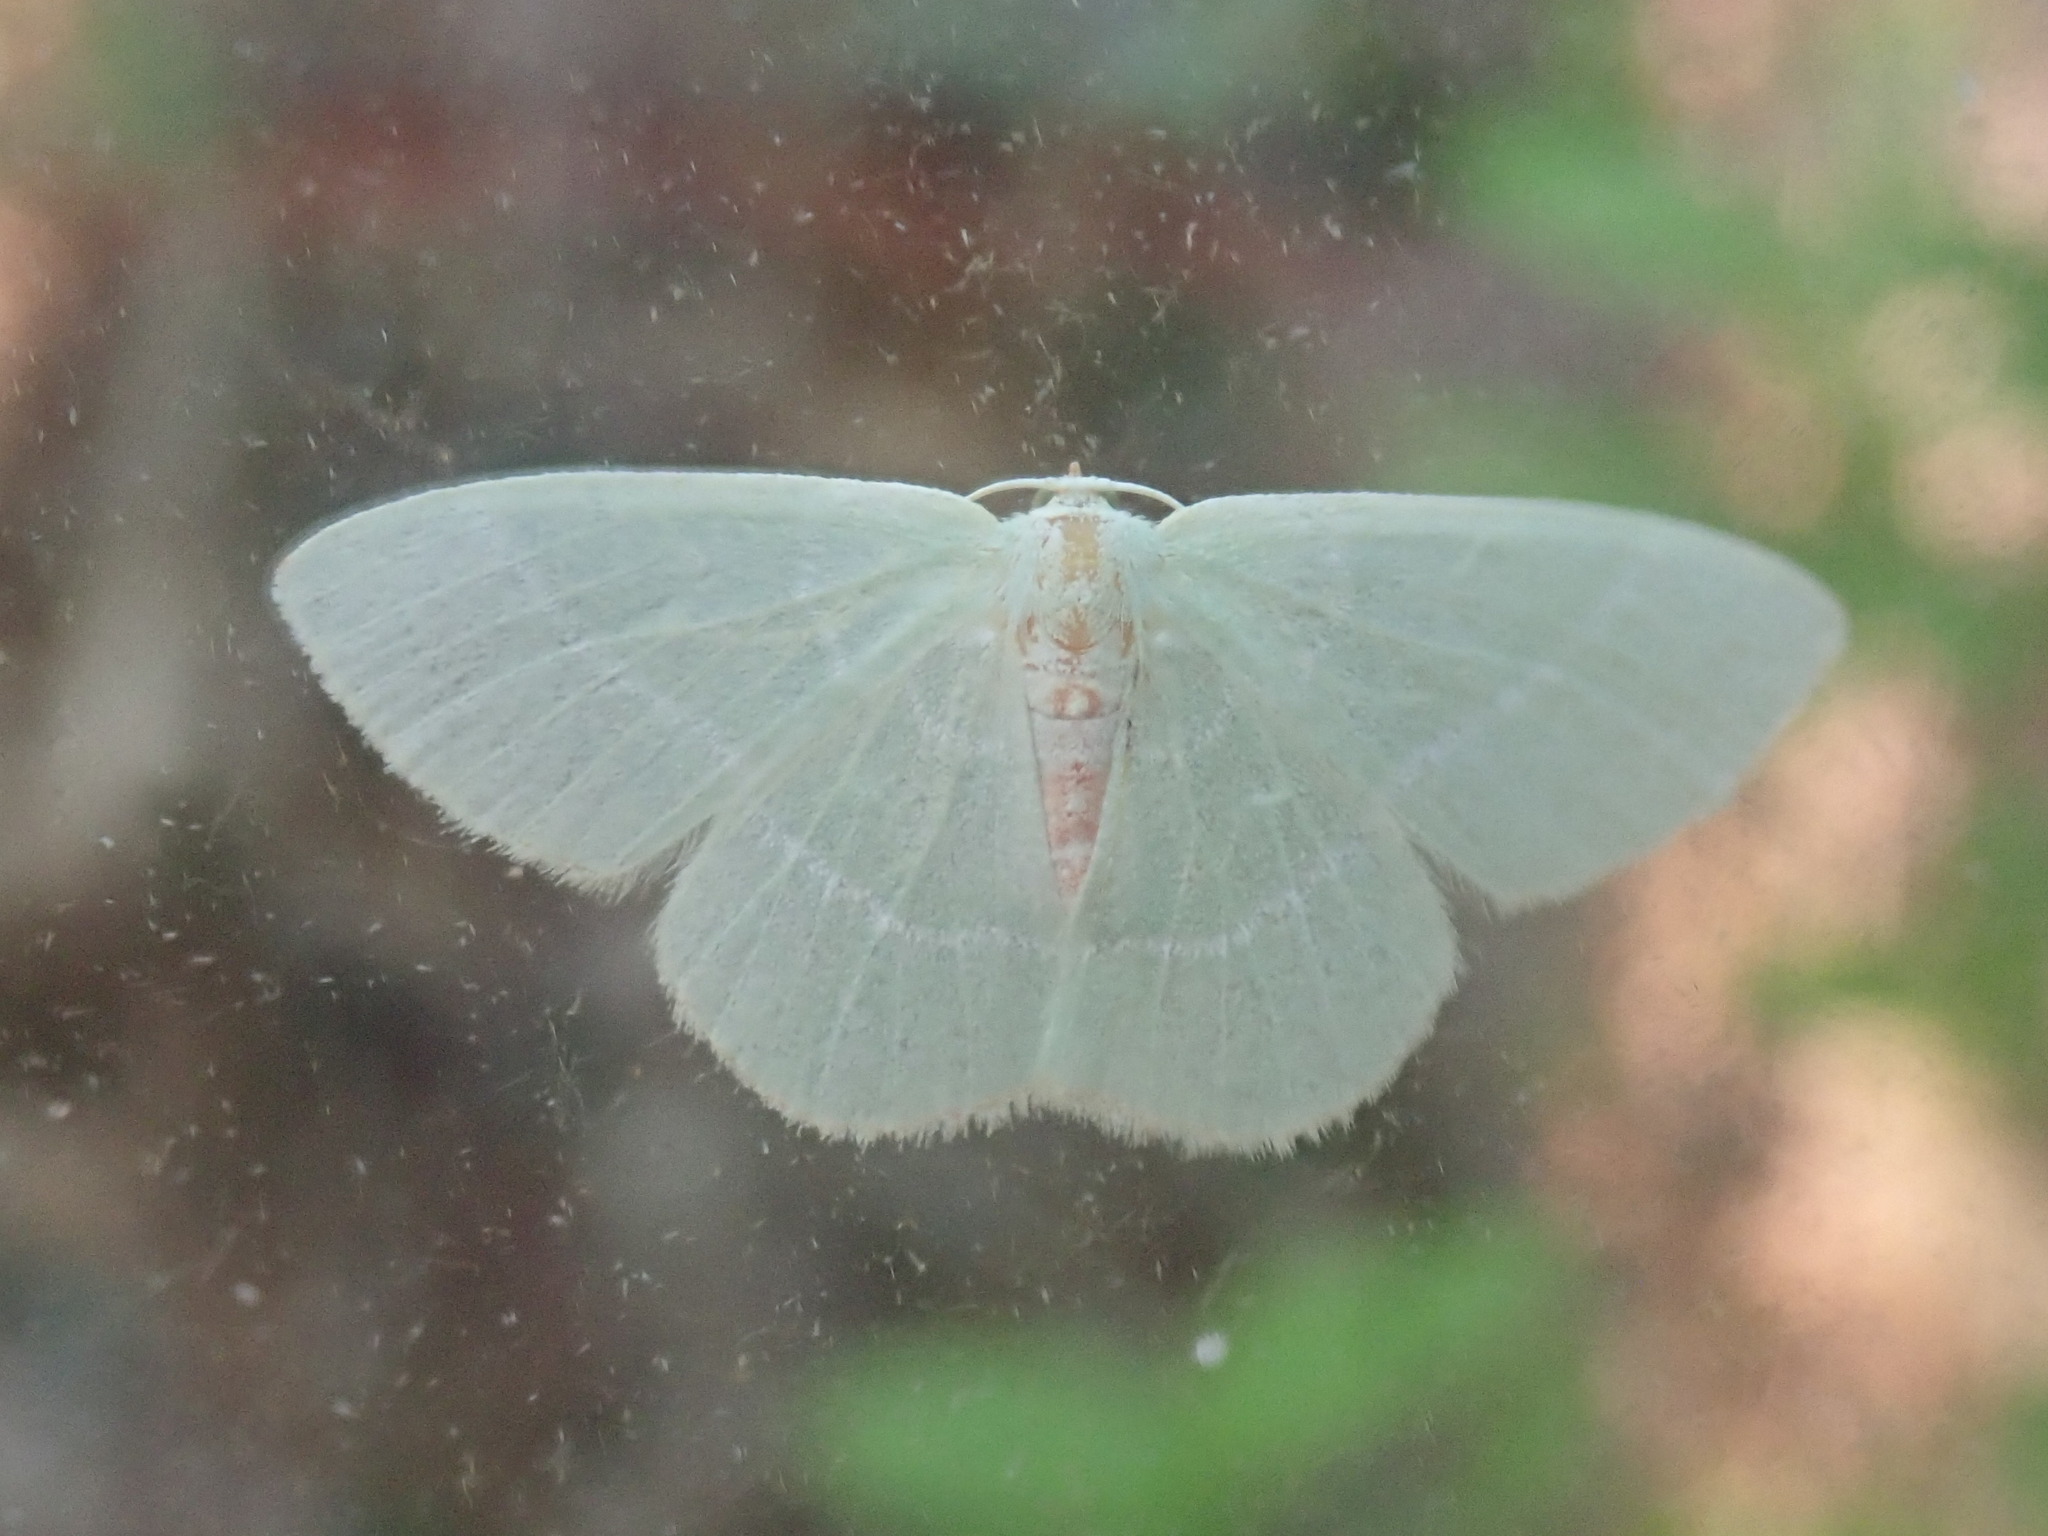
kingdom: Animalia
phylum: Arthropoda
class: Insecta
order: Lepidoptera
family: Geometridae
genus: Nemoria
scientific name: Nemoria bistriaria
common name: Red-fringed emerald
